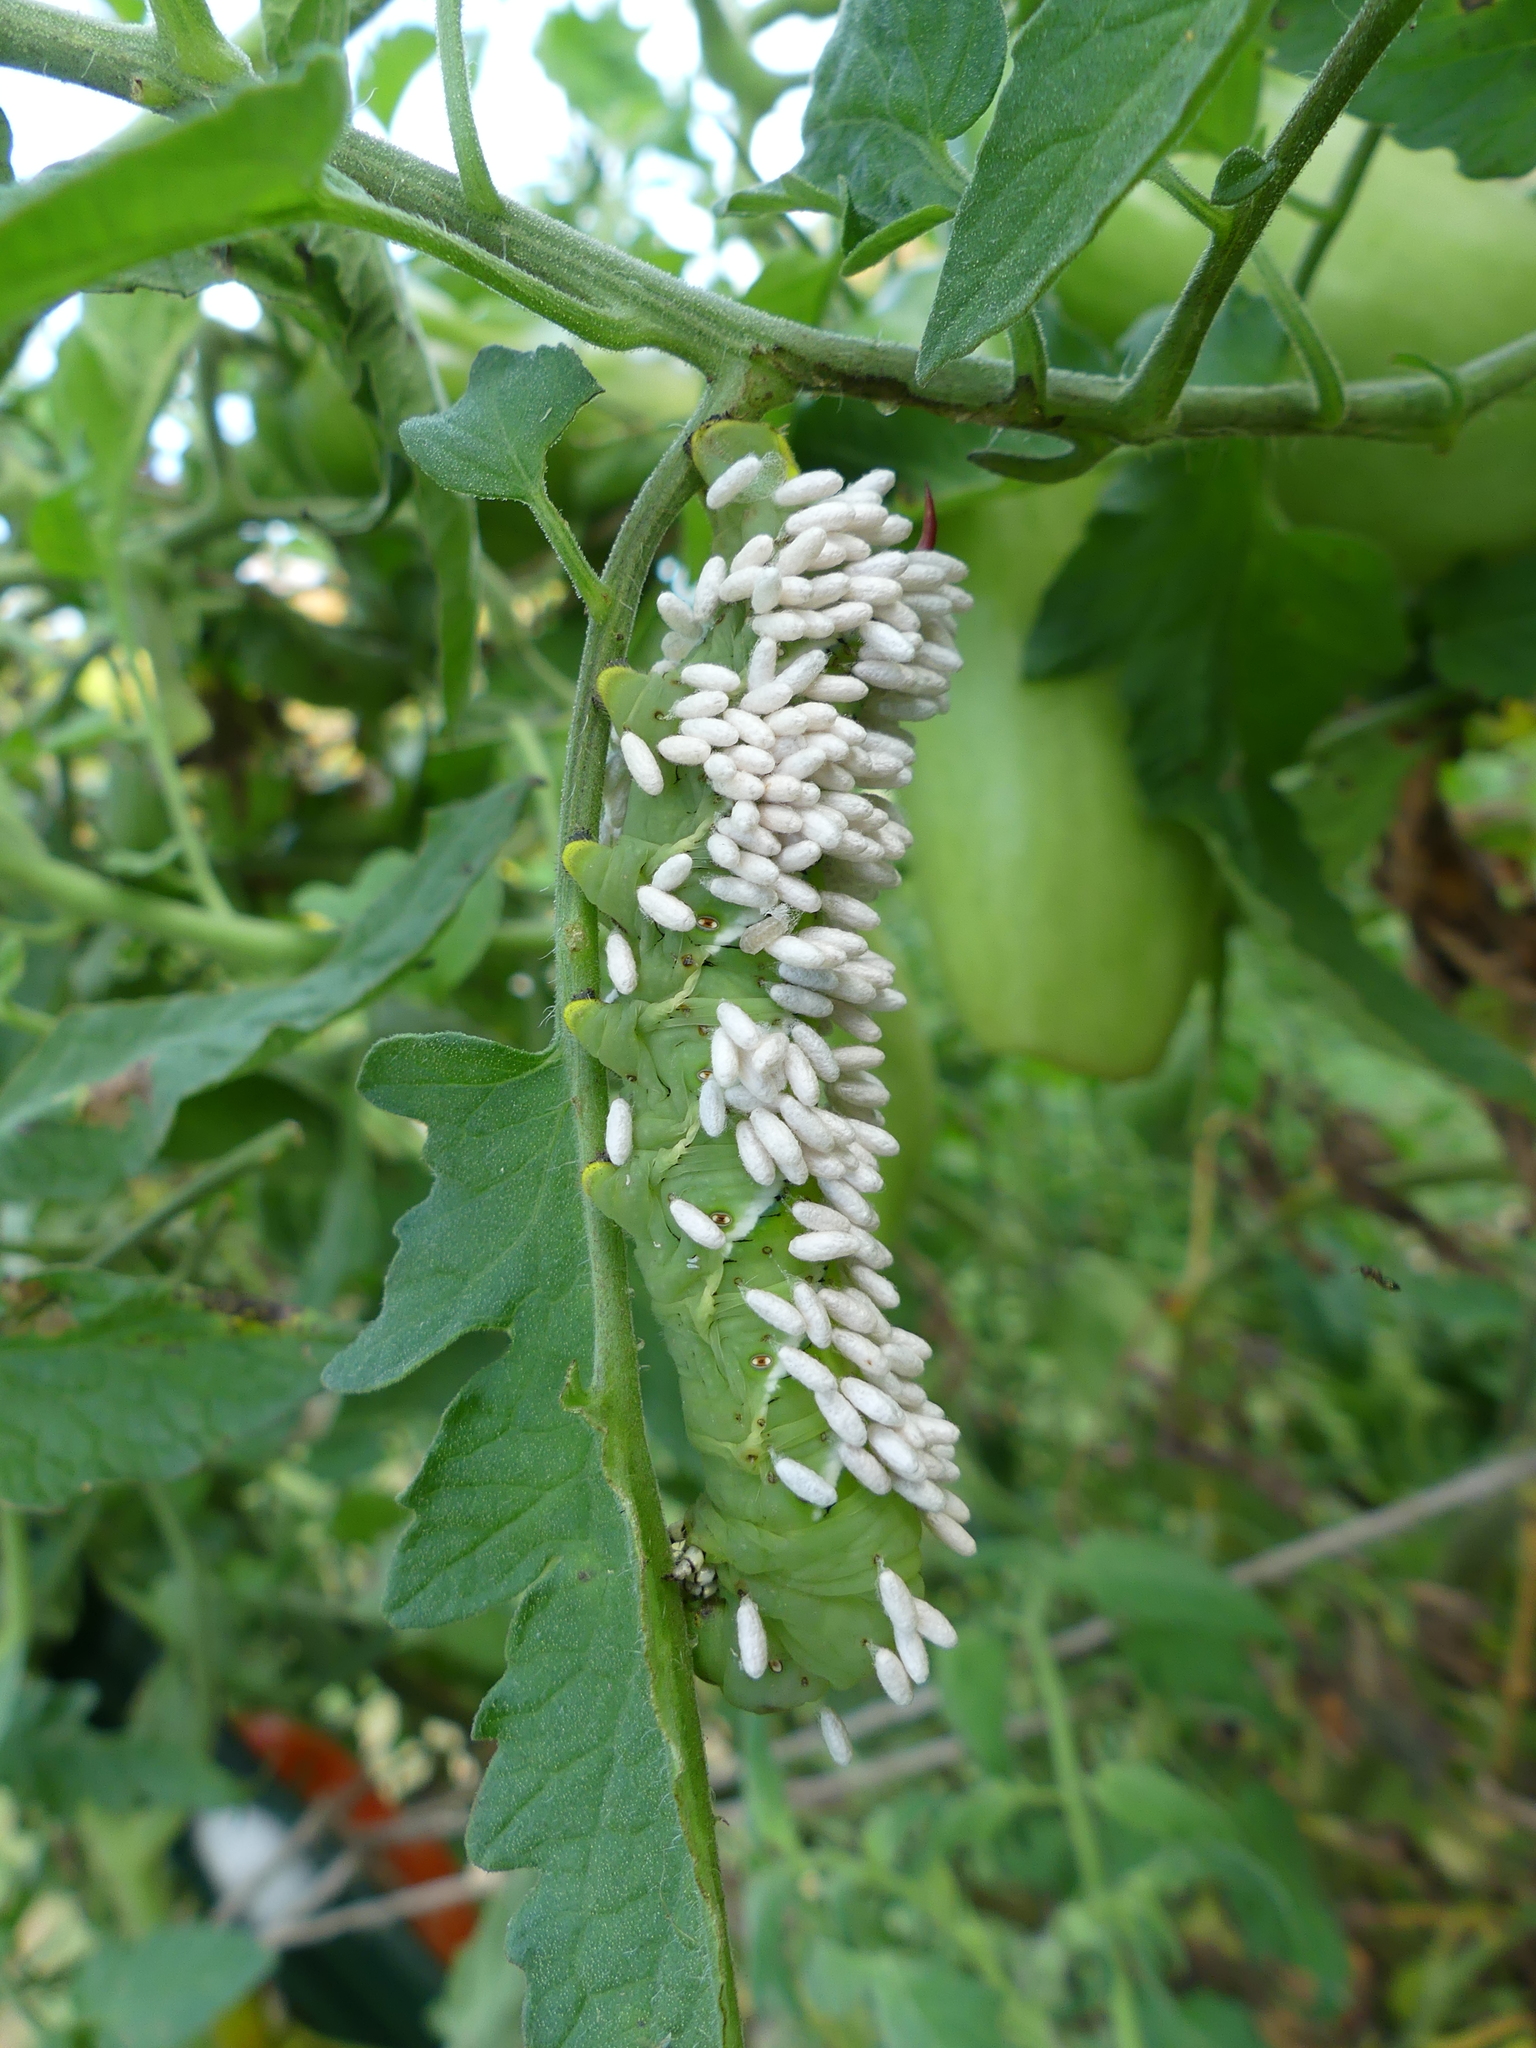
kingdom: Animalia
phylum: Arthropoda
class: Insecta
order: Hymenoptera
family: Braconidae
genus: Cotesia
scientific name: Cotesia congregata
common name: Hornworm parasitoid wasp
